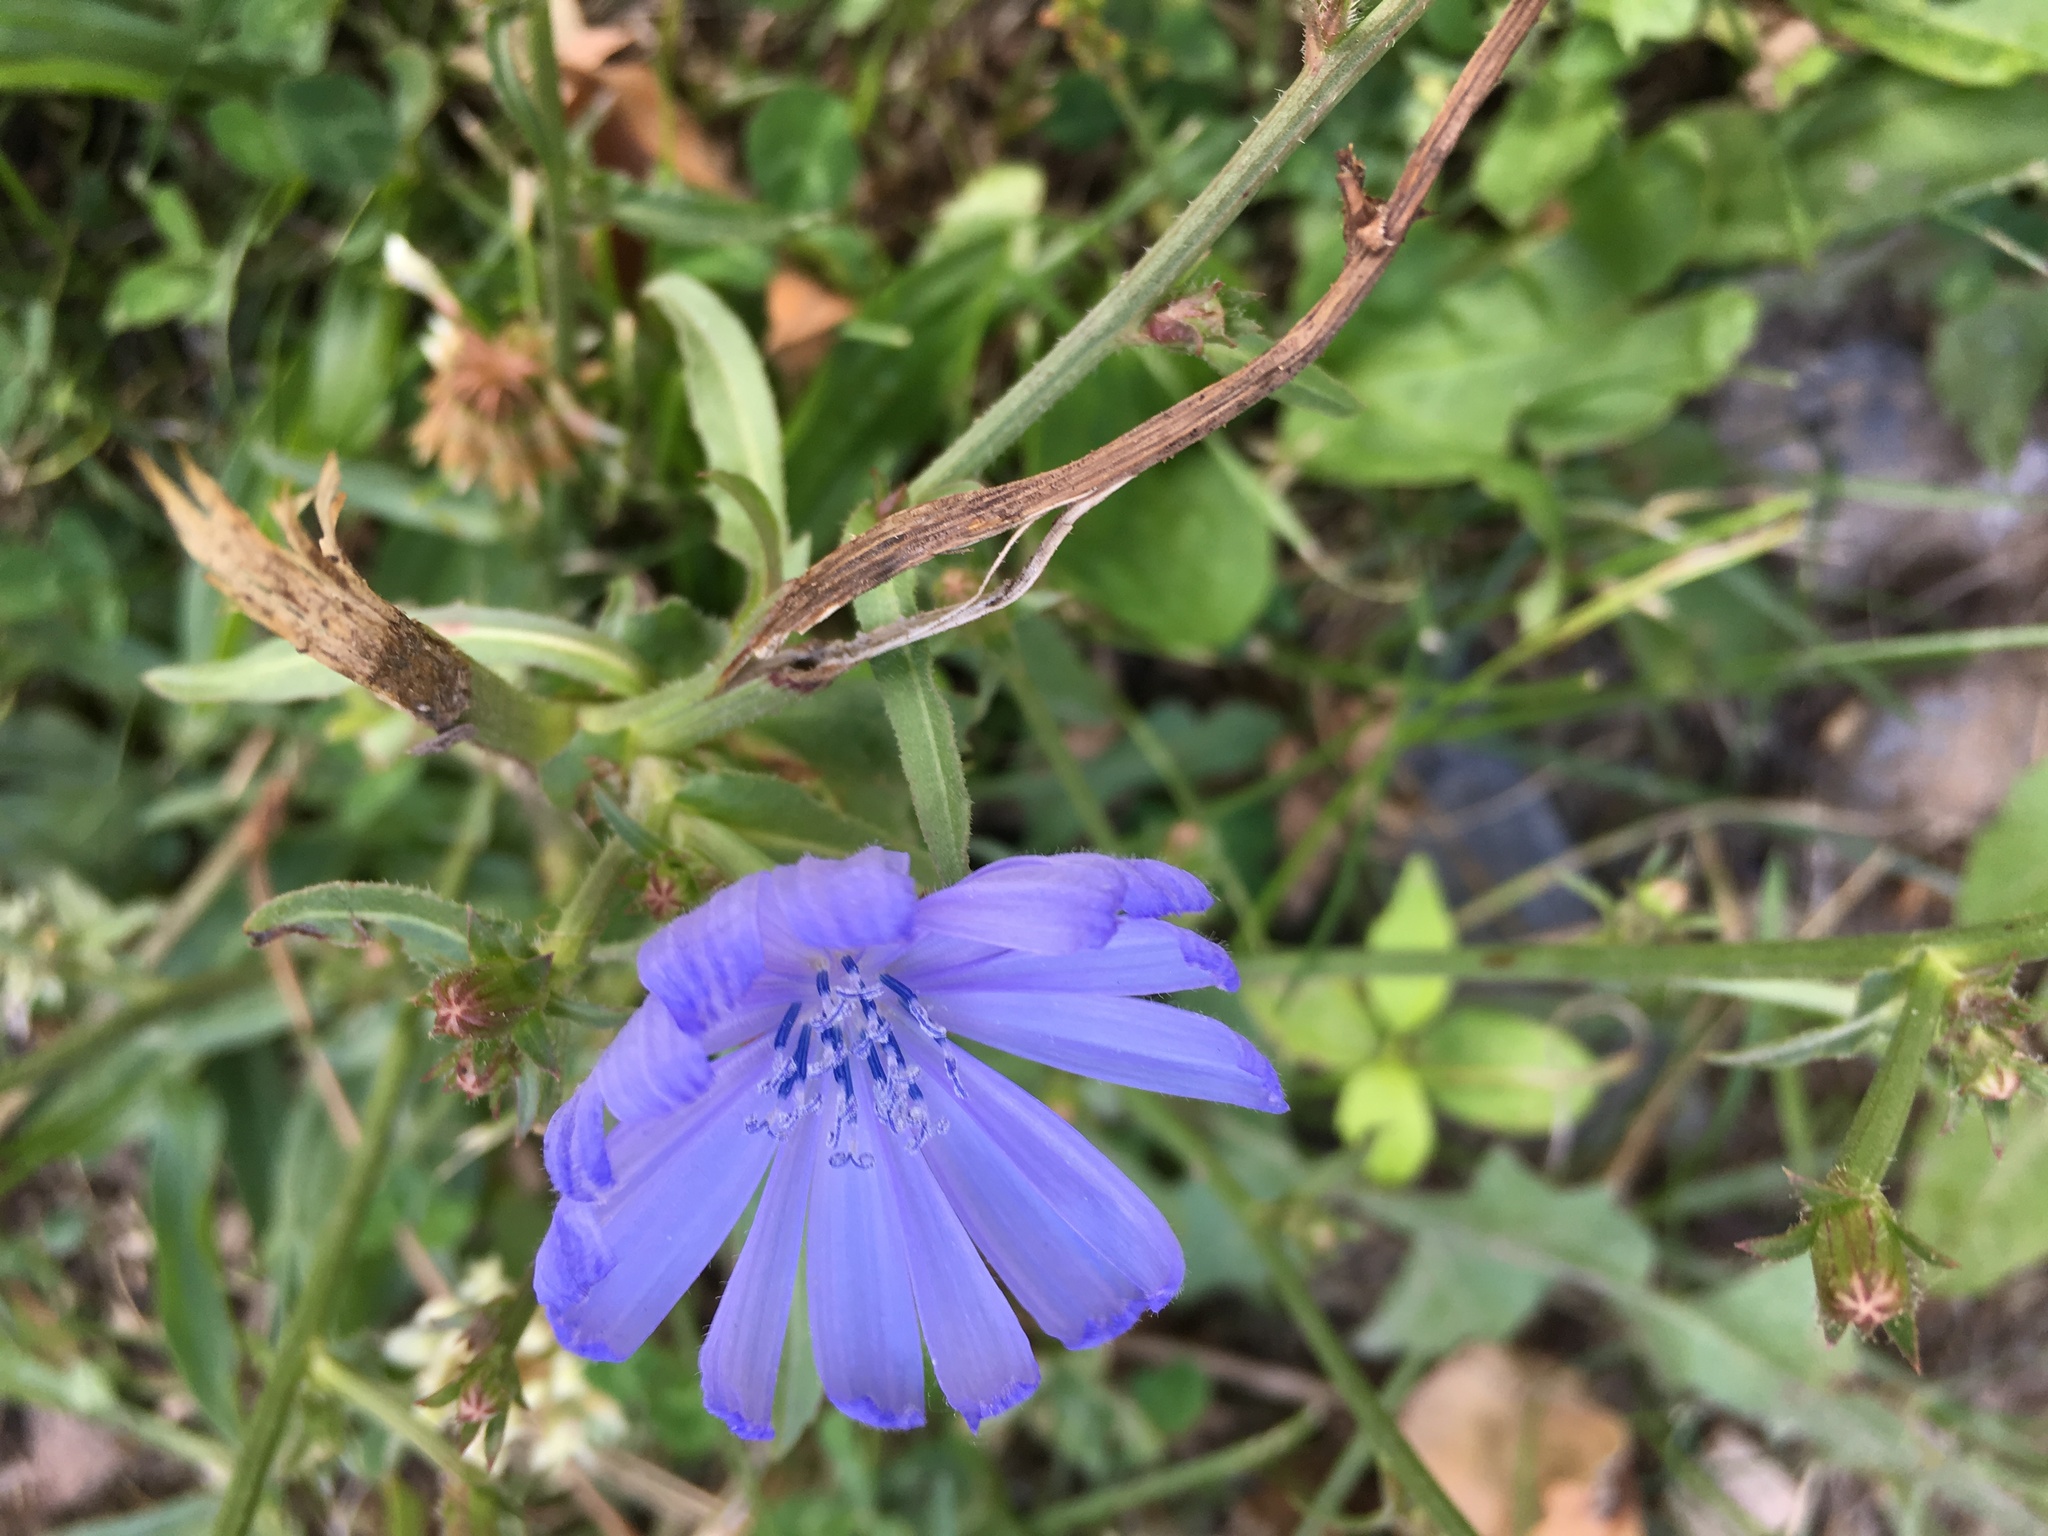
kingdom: Plantae
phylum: Tracheophyta
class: Magnoliopsida
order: Asterales
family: Asteraceae
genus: Cichorium
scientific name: Cichorium intybus
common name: Chicory
